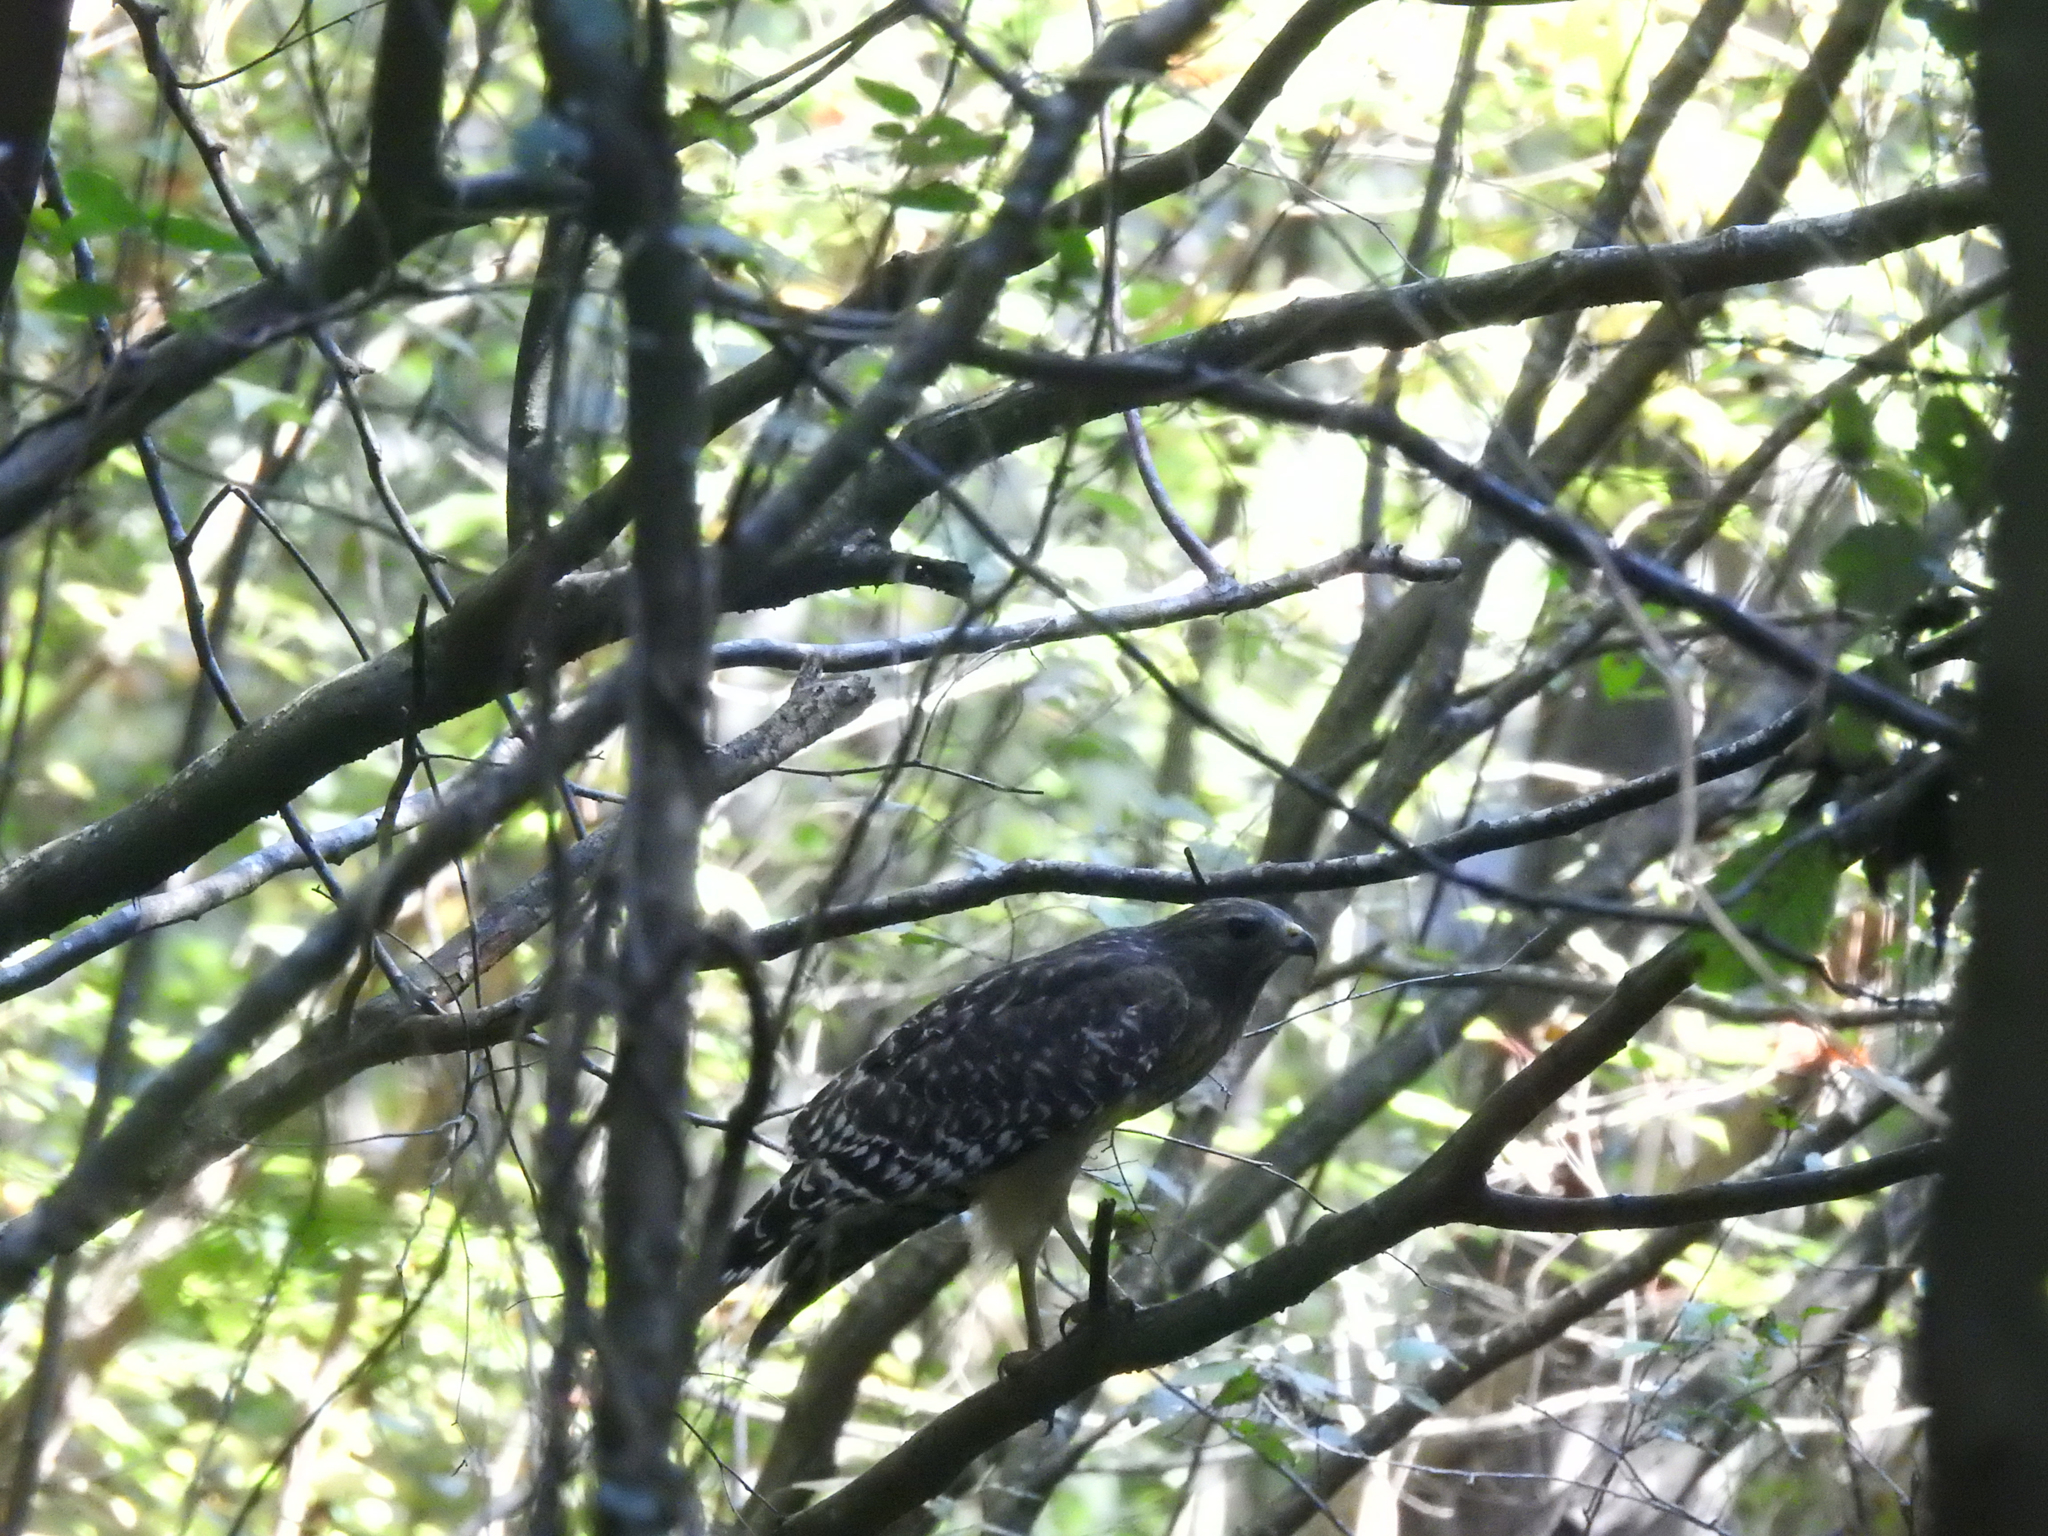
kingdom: Animalia
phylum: Chordata
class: Aves
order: Accipitriformes
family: Accipitridae
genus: Buteo
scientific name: Buteo lineatus
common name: Red-shouldered hawk
